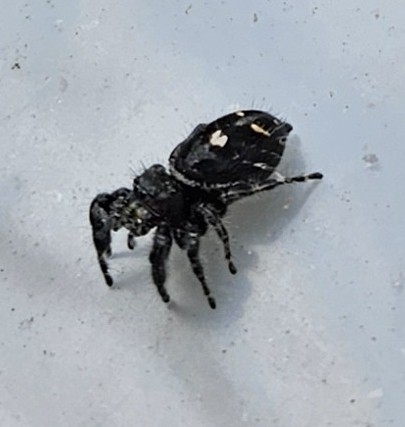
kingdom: Animalia
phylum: Arthropoda
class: Arachnida
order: Araneae
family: Salticidae
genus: Phidippus
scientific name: Phidippus audax
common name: Bold jumper
